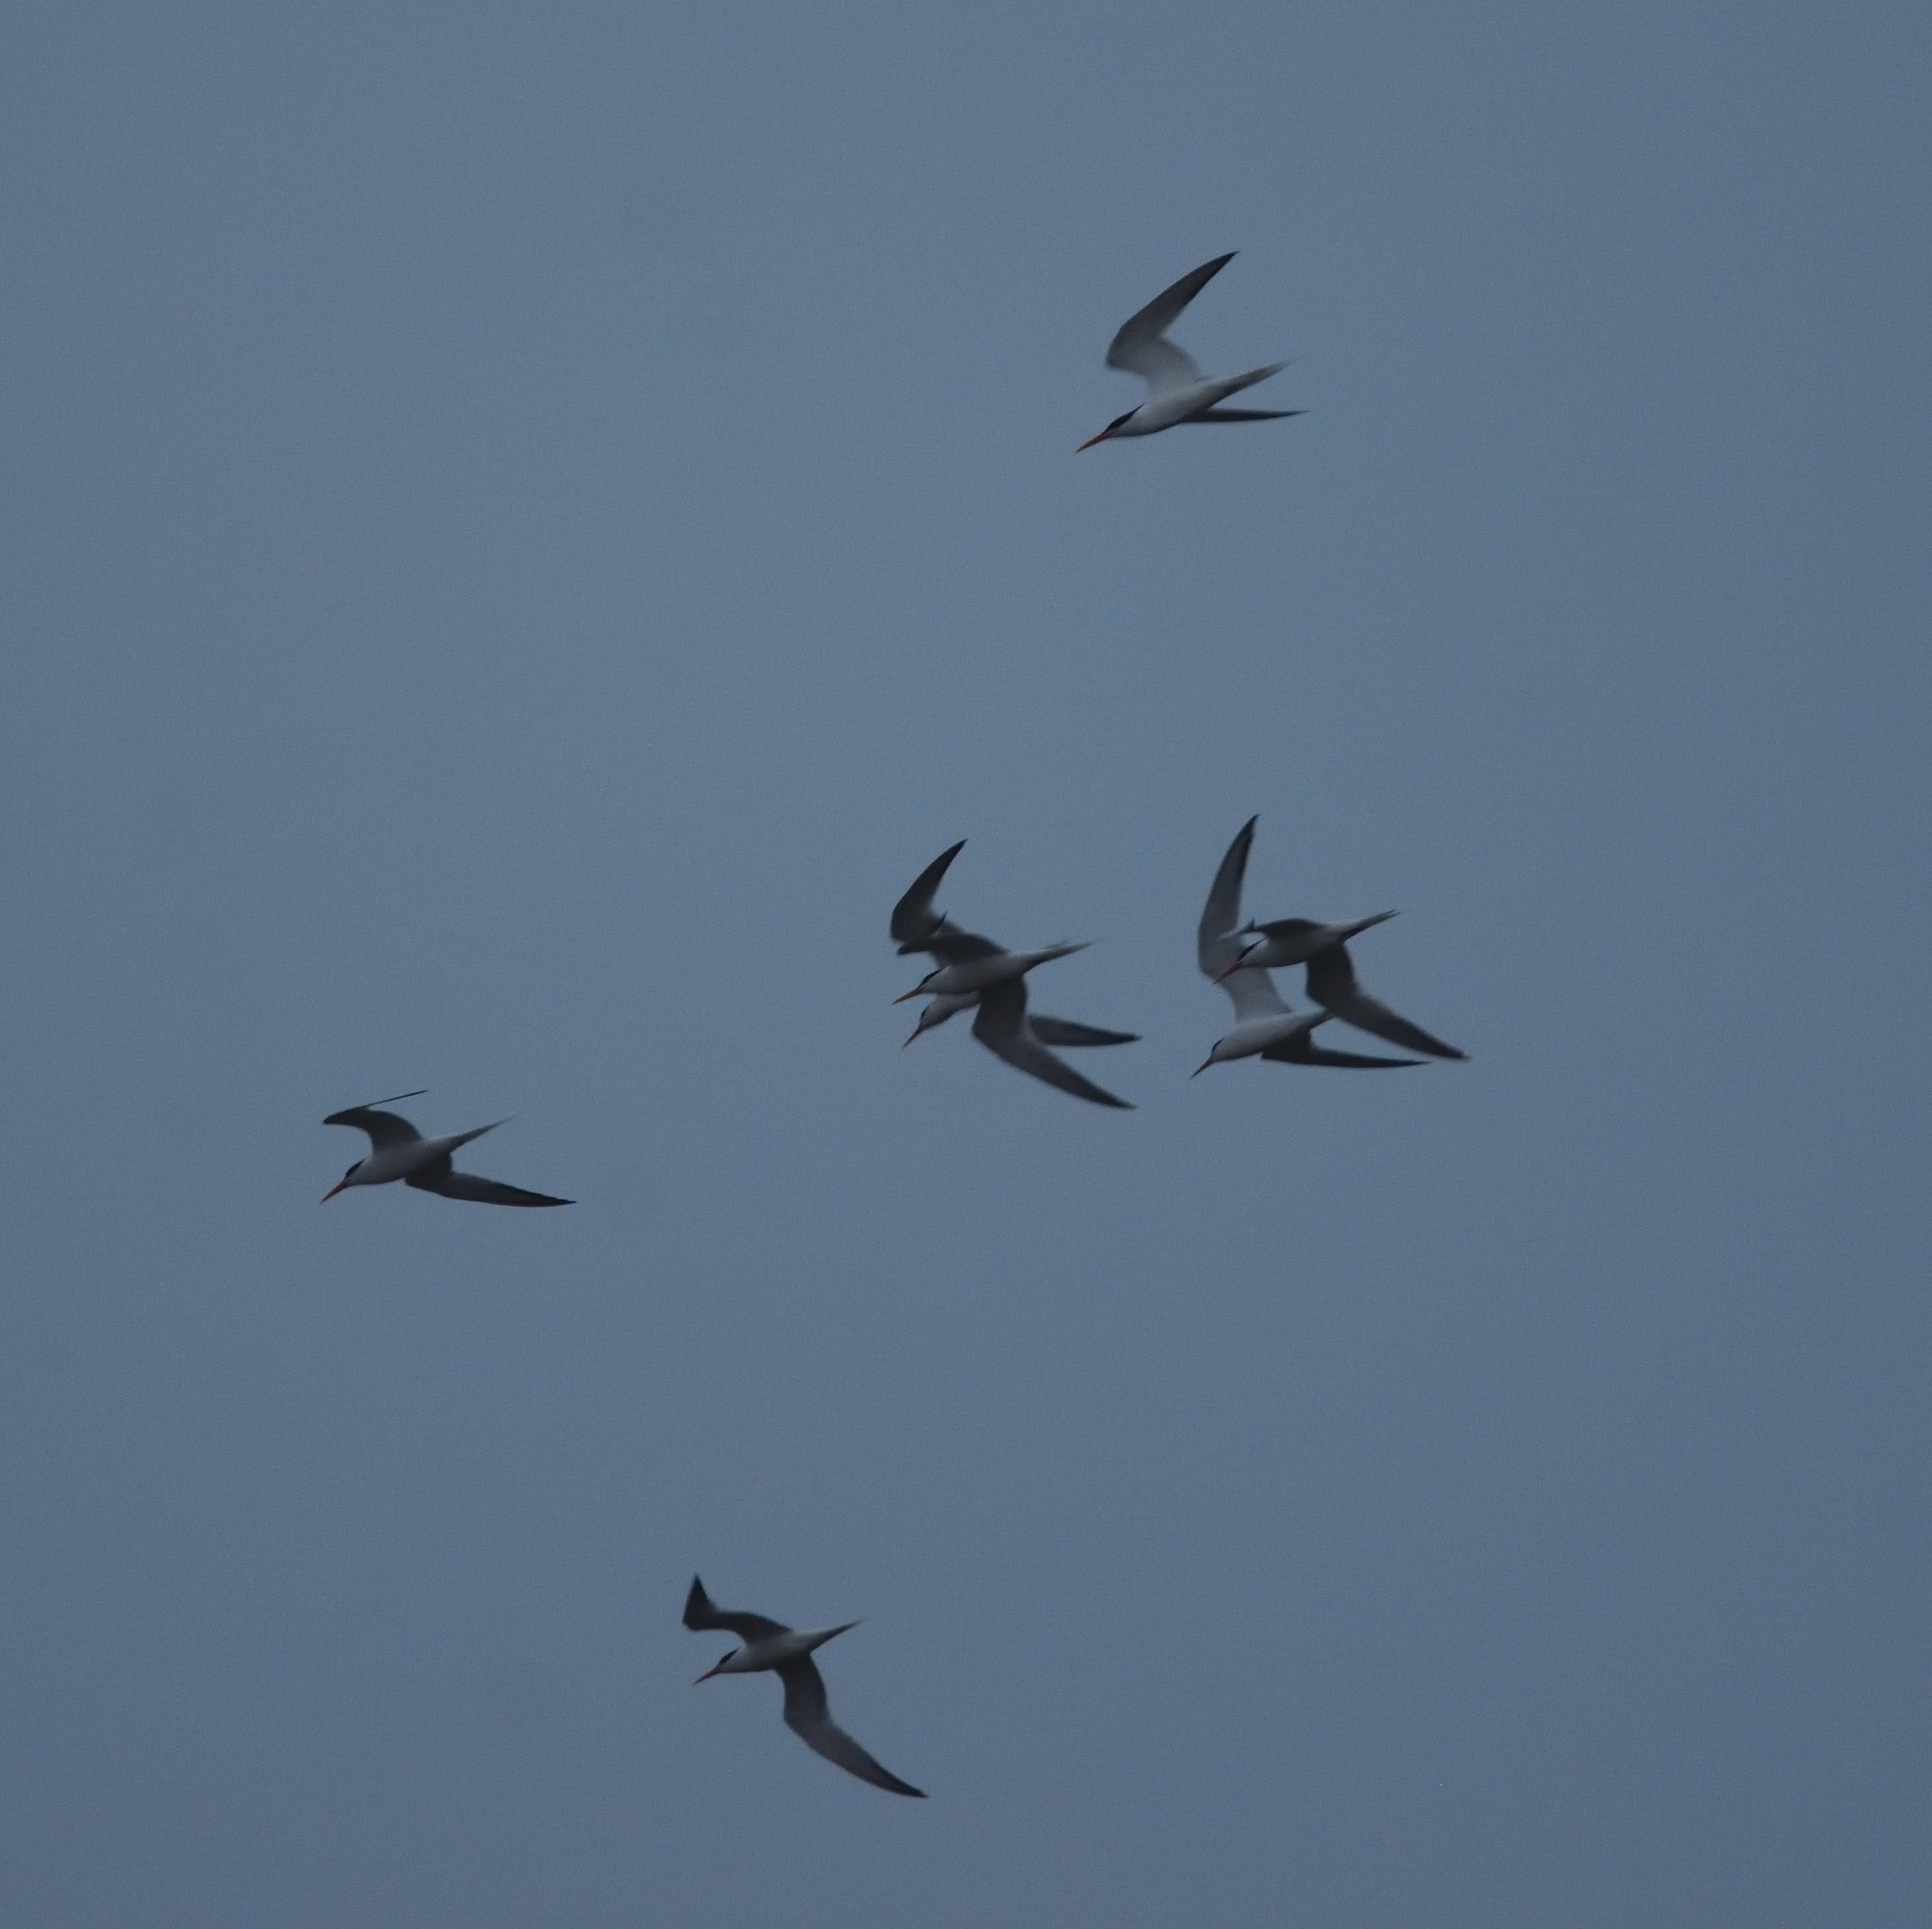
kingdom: Animalia
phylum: Chordata
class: Aves
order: Charadriiformes
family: Laridae
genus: Thalasseus
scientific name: Thalasseus elegans
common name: Elegant tern
